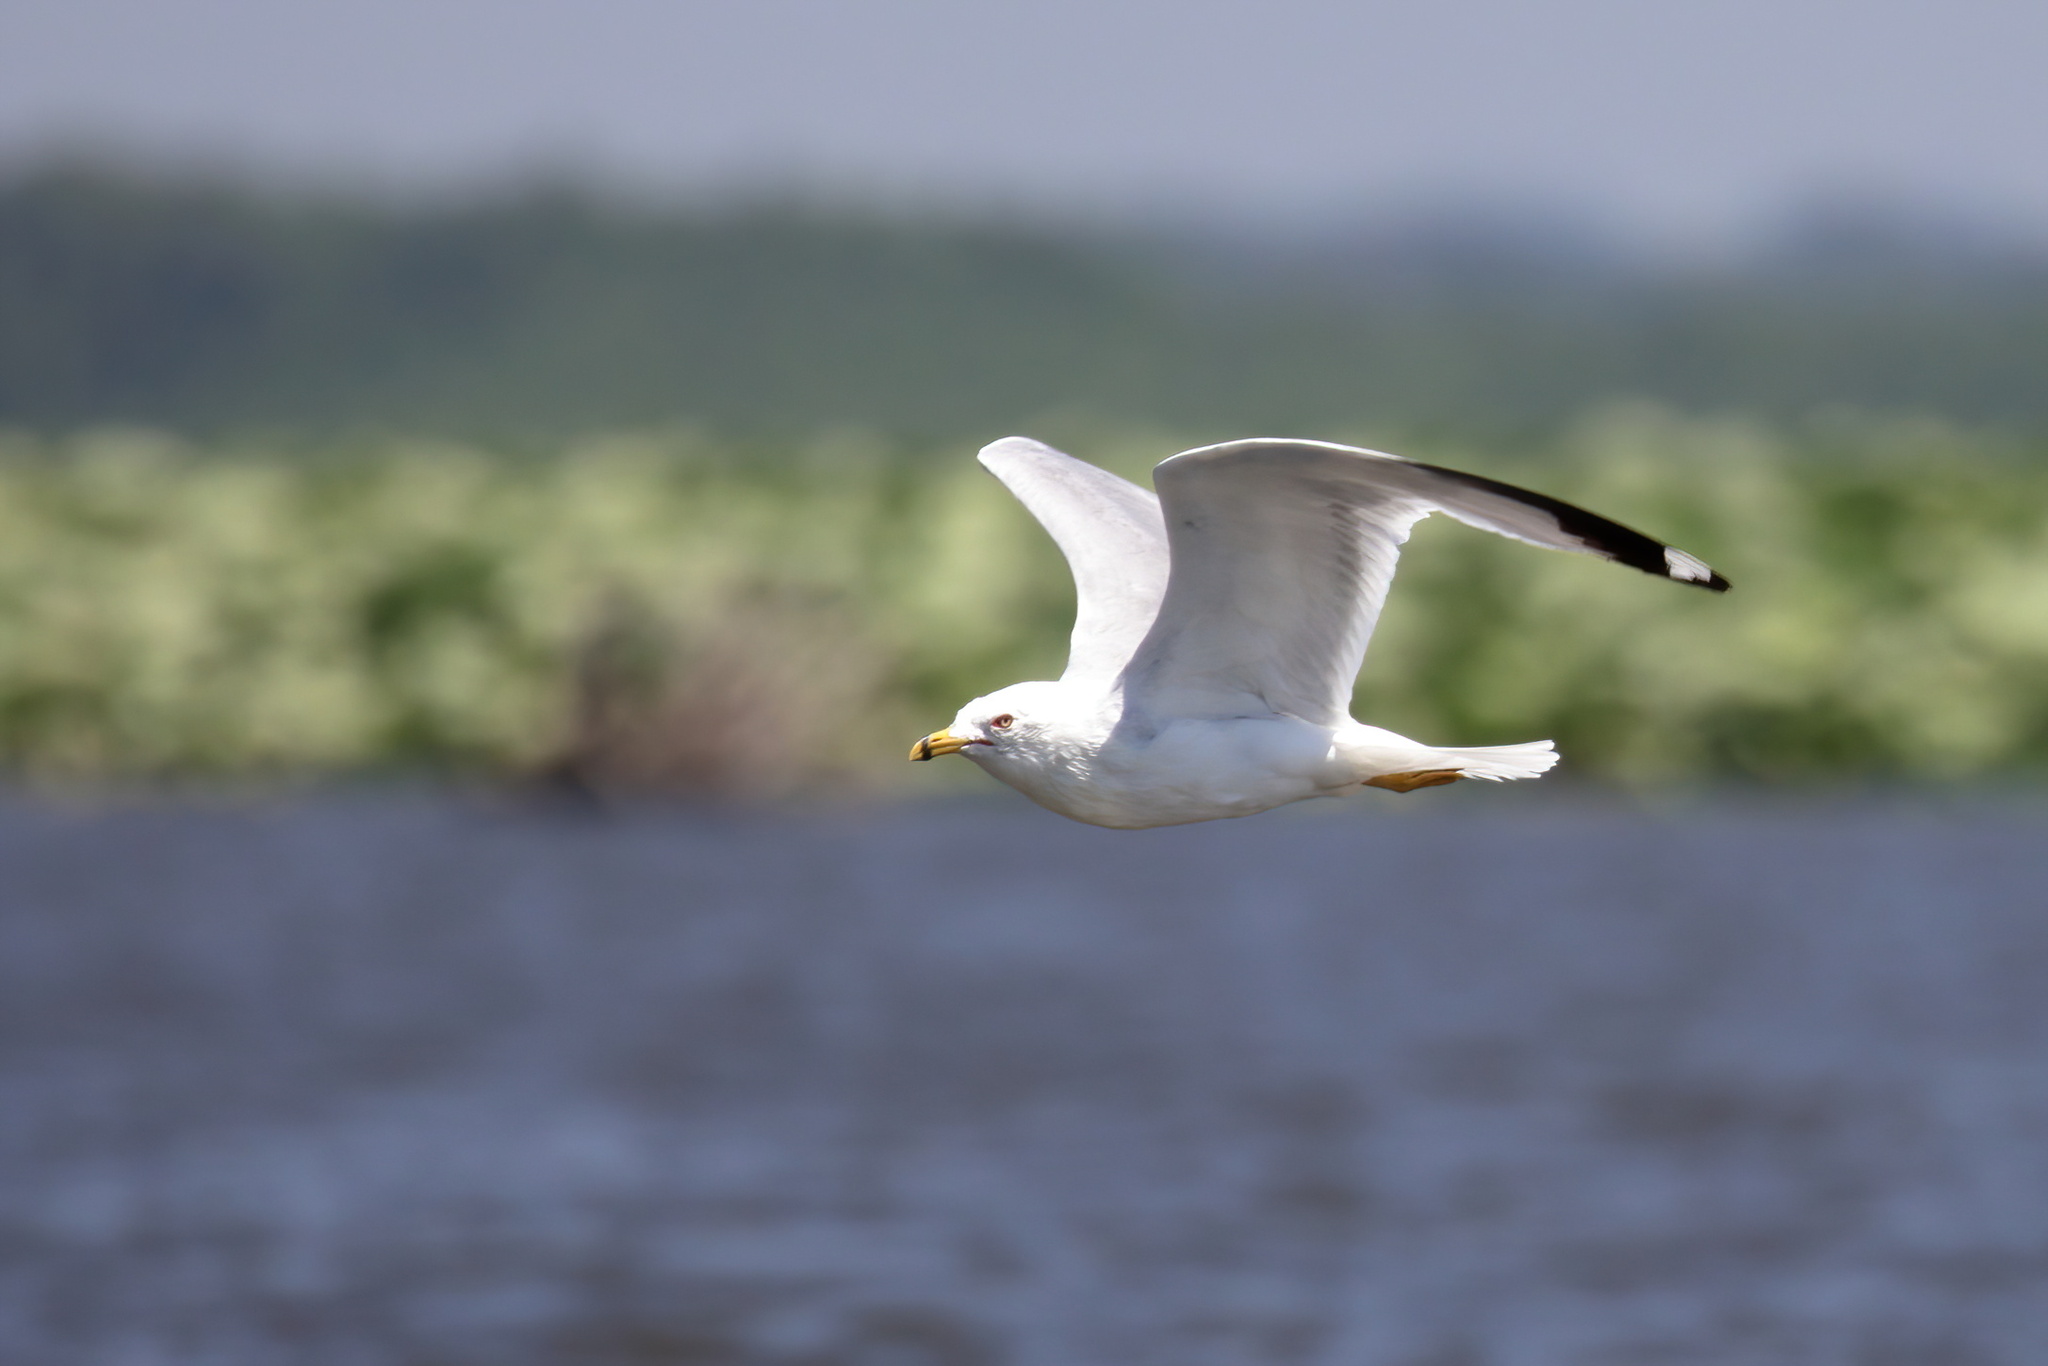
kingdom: Animalia
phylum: Chordata
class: Aves
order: Charadriiformes
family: Laridae
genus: Larus
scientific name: Larus delawarensis
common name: Ring-billed gull
